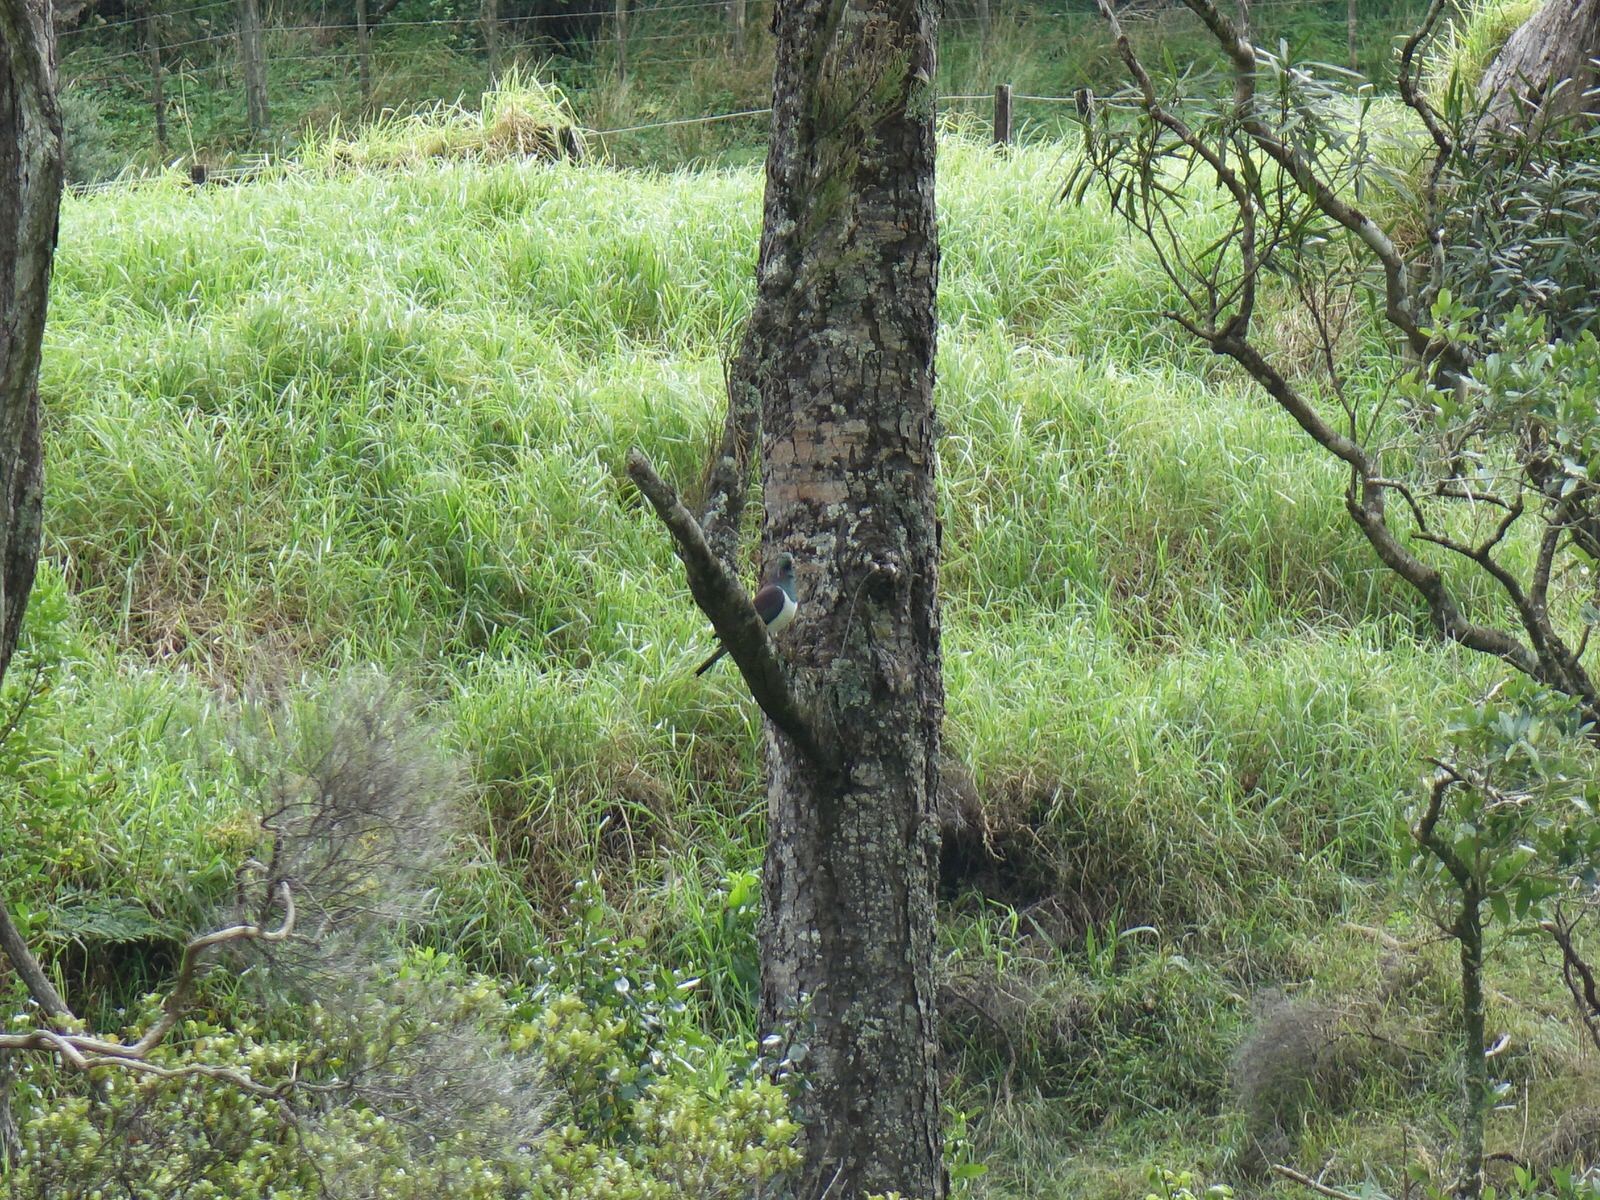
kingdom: Animalia
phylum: Chordata
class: Aves
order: Columbiformes
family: Columbidae
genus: Hemiphaga
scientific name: Hemiphaga novaeseelandiae
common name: New zealand pigeon
